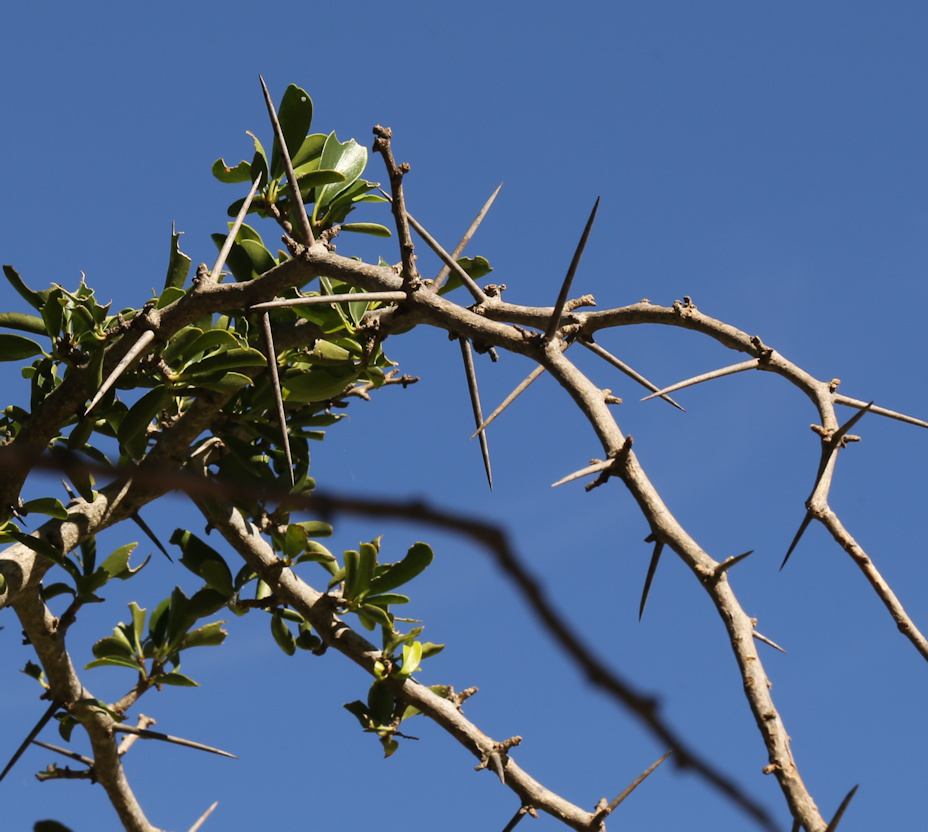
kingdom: Plantae
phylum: Tracheophyta
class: Magnoliopsida
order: Malpighiales
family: Salicaceae
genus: Dovyalis
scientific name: Dovyalis caffra
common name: Kei-apple
